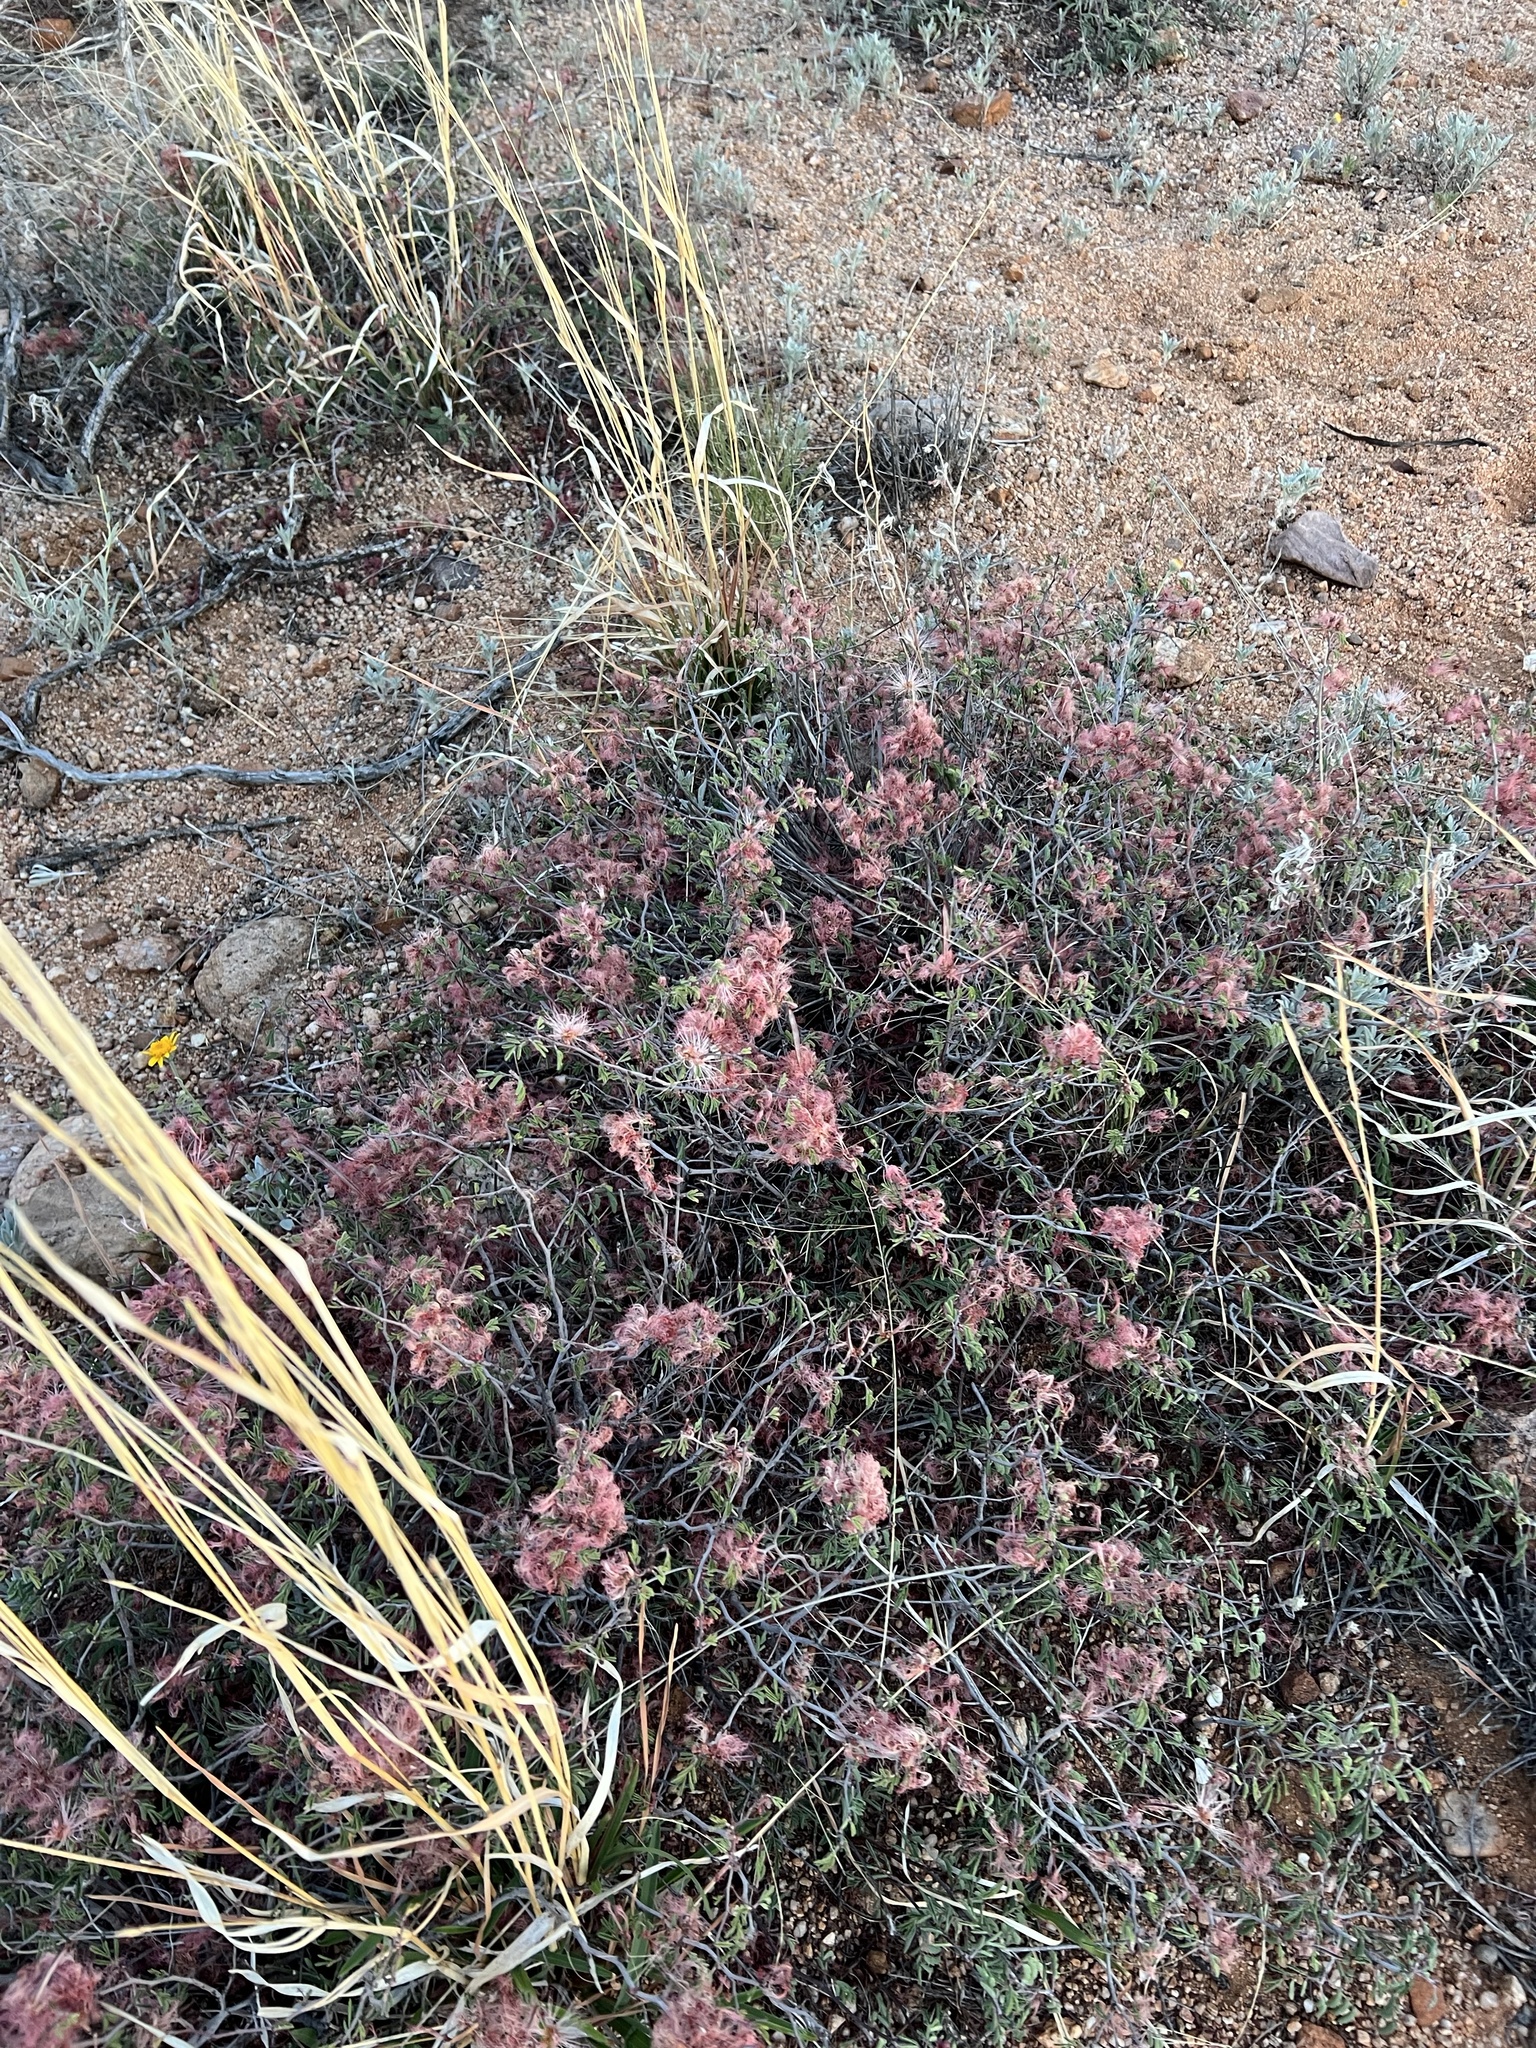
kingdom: Plantae
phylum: Tracheophyta
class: Magnoliopsida
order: Fabales
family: Fabaceae
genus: Calliandra
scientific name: Calliandra eriophylla
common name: Fairy-duster
